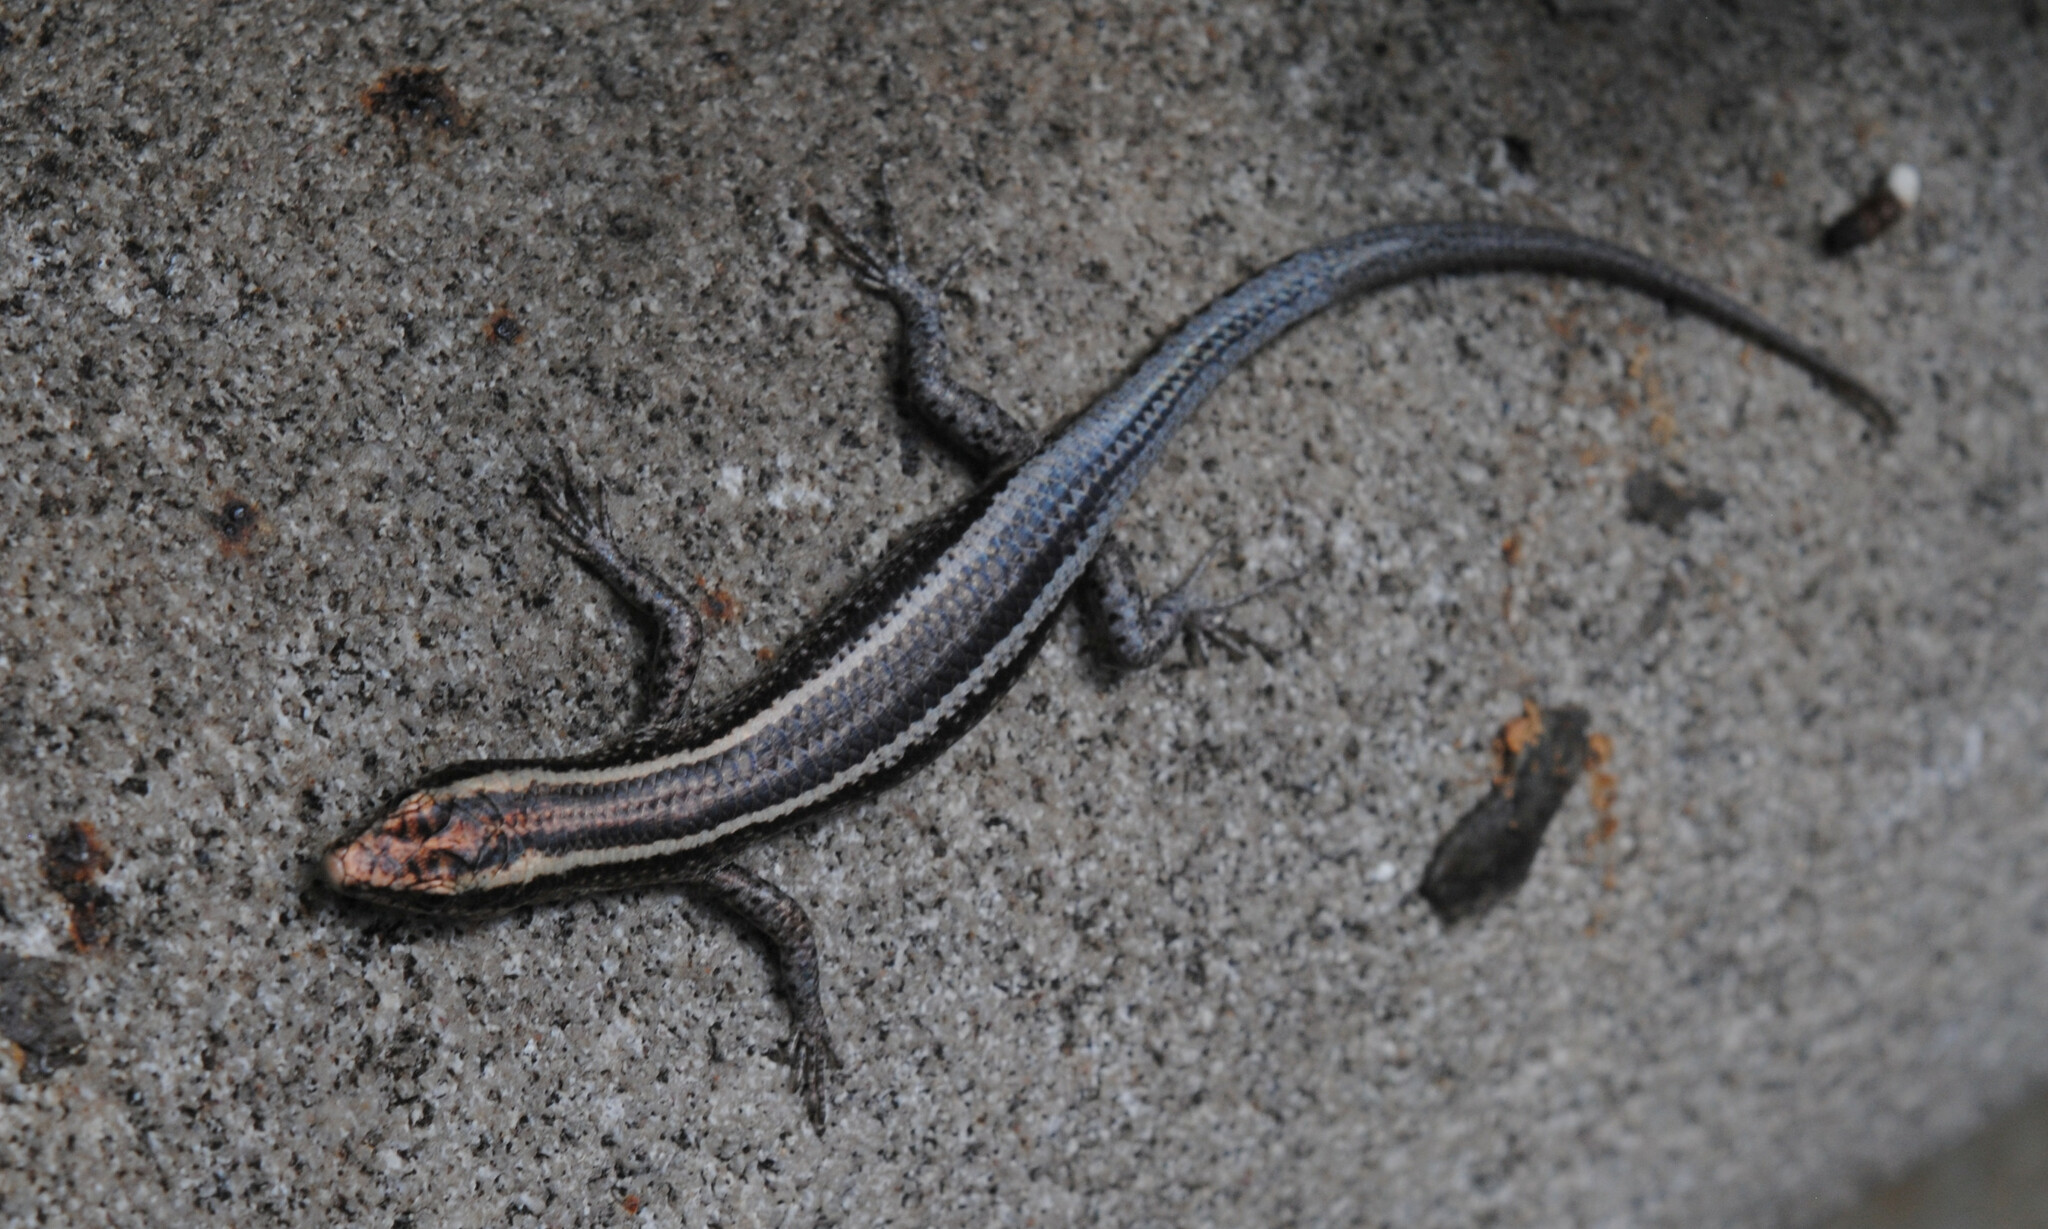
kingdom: Animalia
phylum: Chordata
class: Squamata
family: Scincidae
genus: Cryptoblepharus
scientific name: Cryptoblepharus pulcher
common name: Elegant snake-eyed skink
